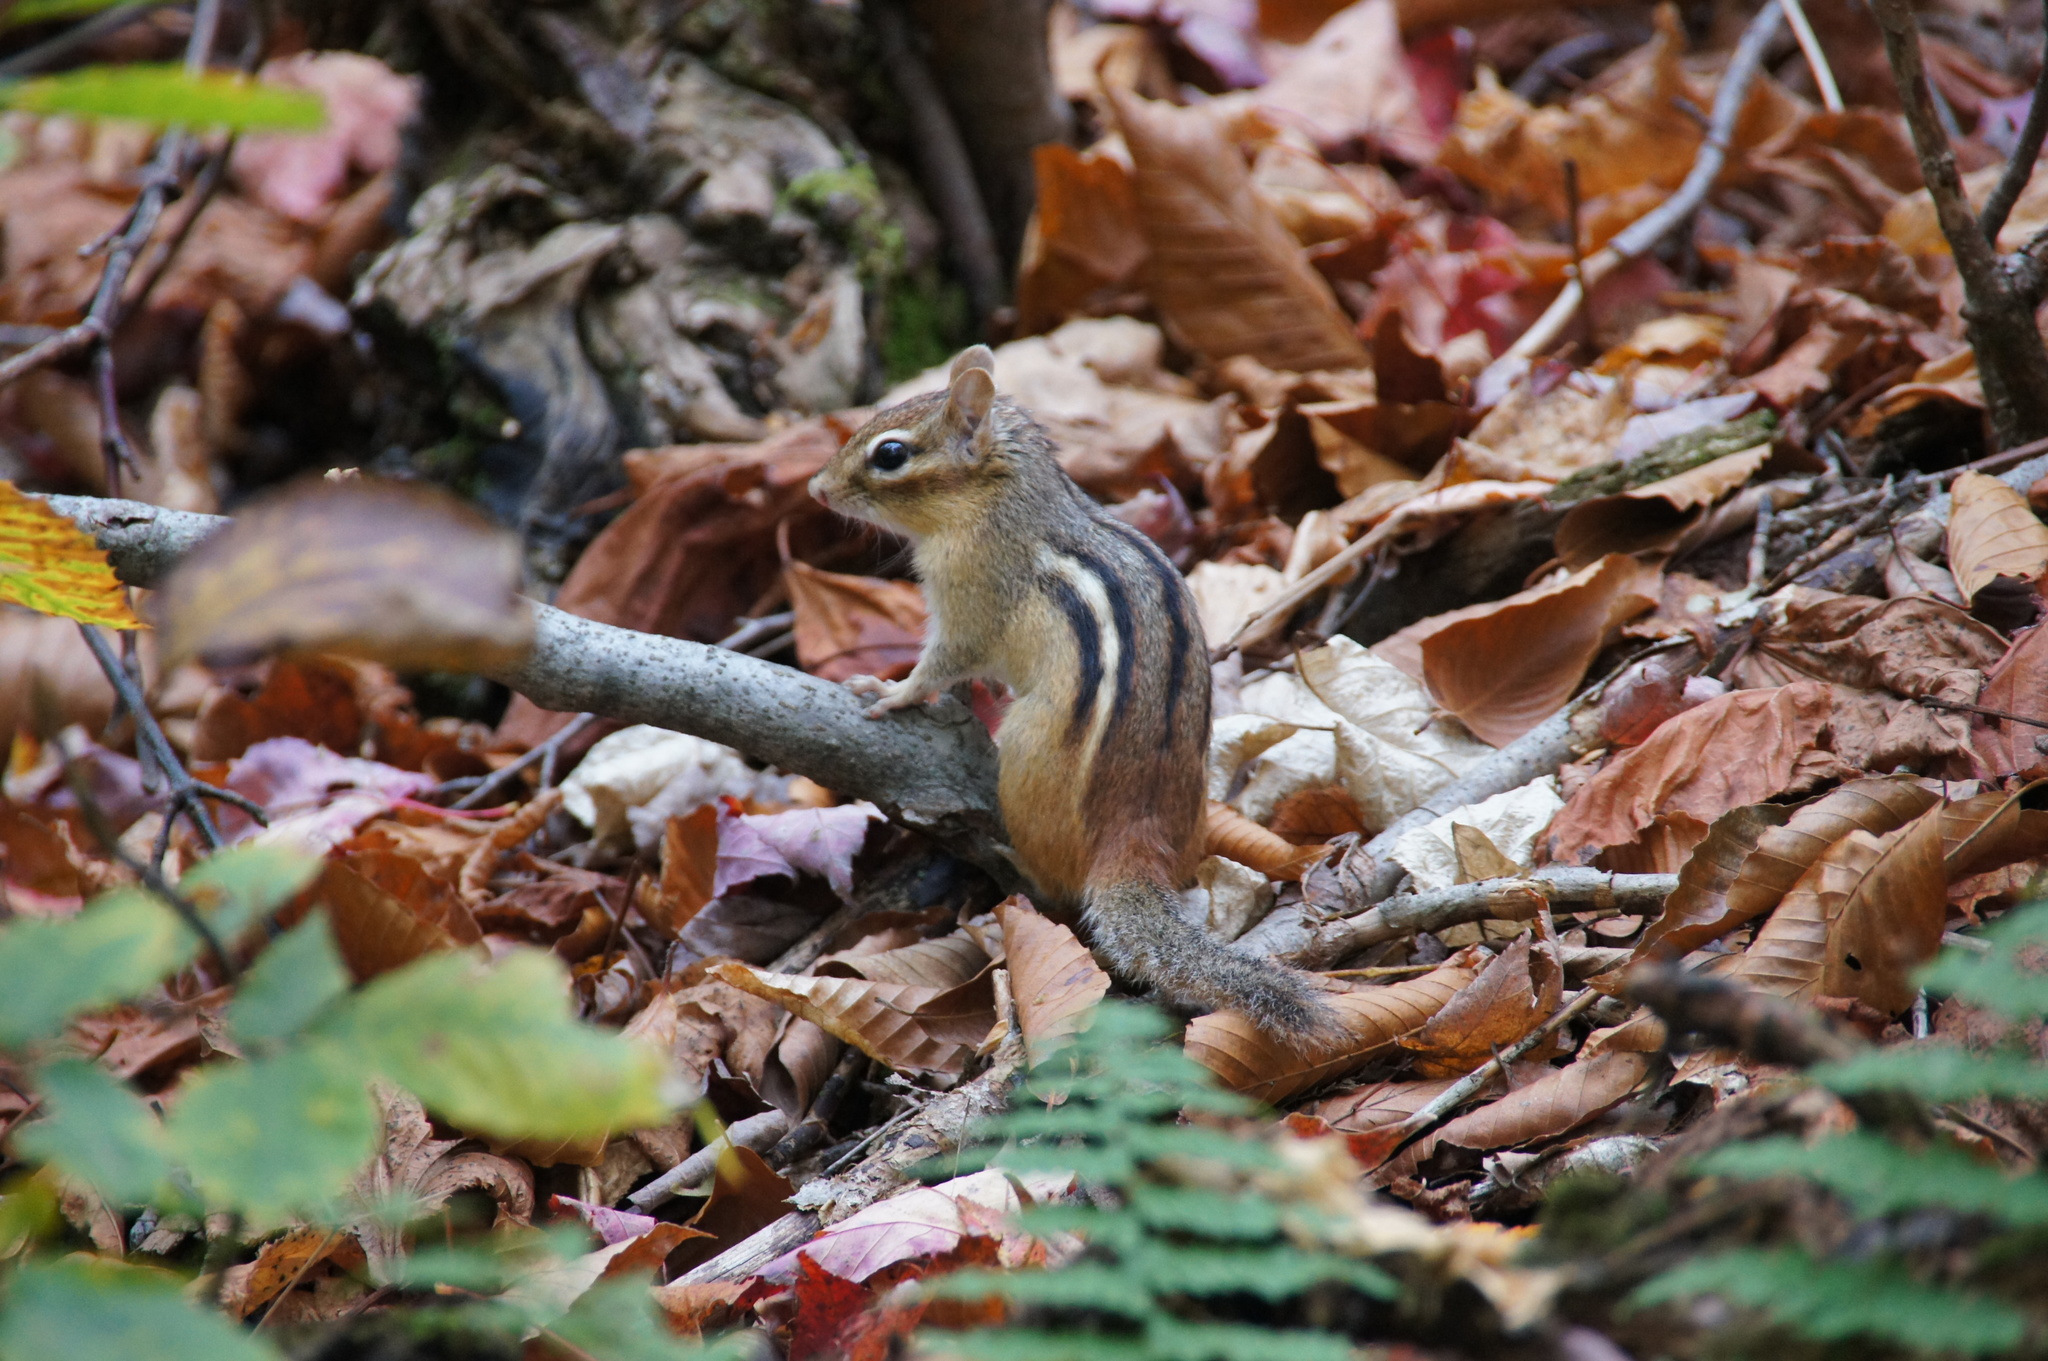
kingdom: Animalia
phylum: Chordata
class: Mammalia
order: Rodentia
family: Sciuridae
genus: Tamias
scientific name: Tamias striatus
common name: Eastern chipmunk
